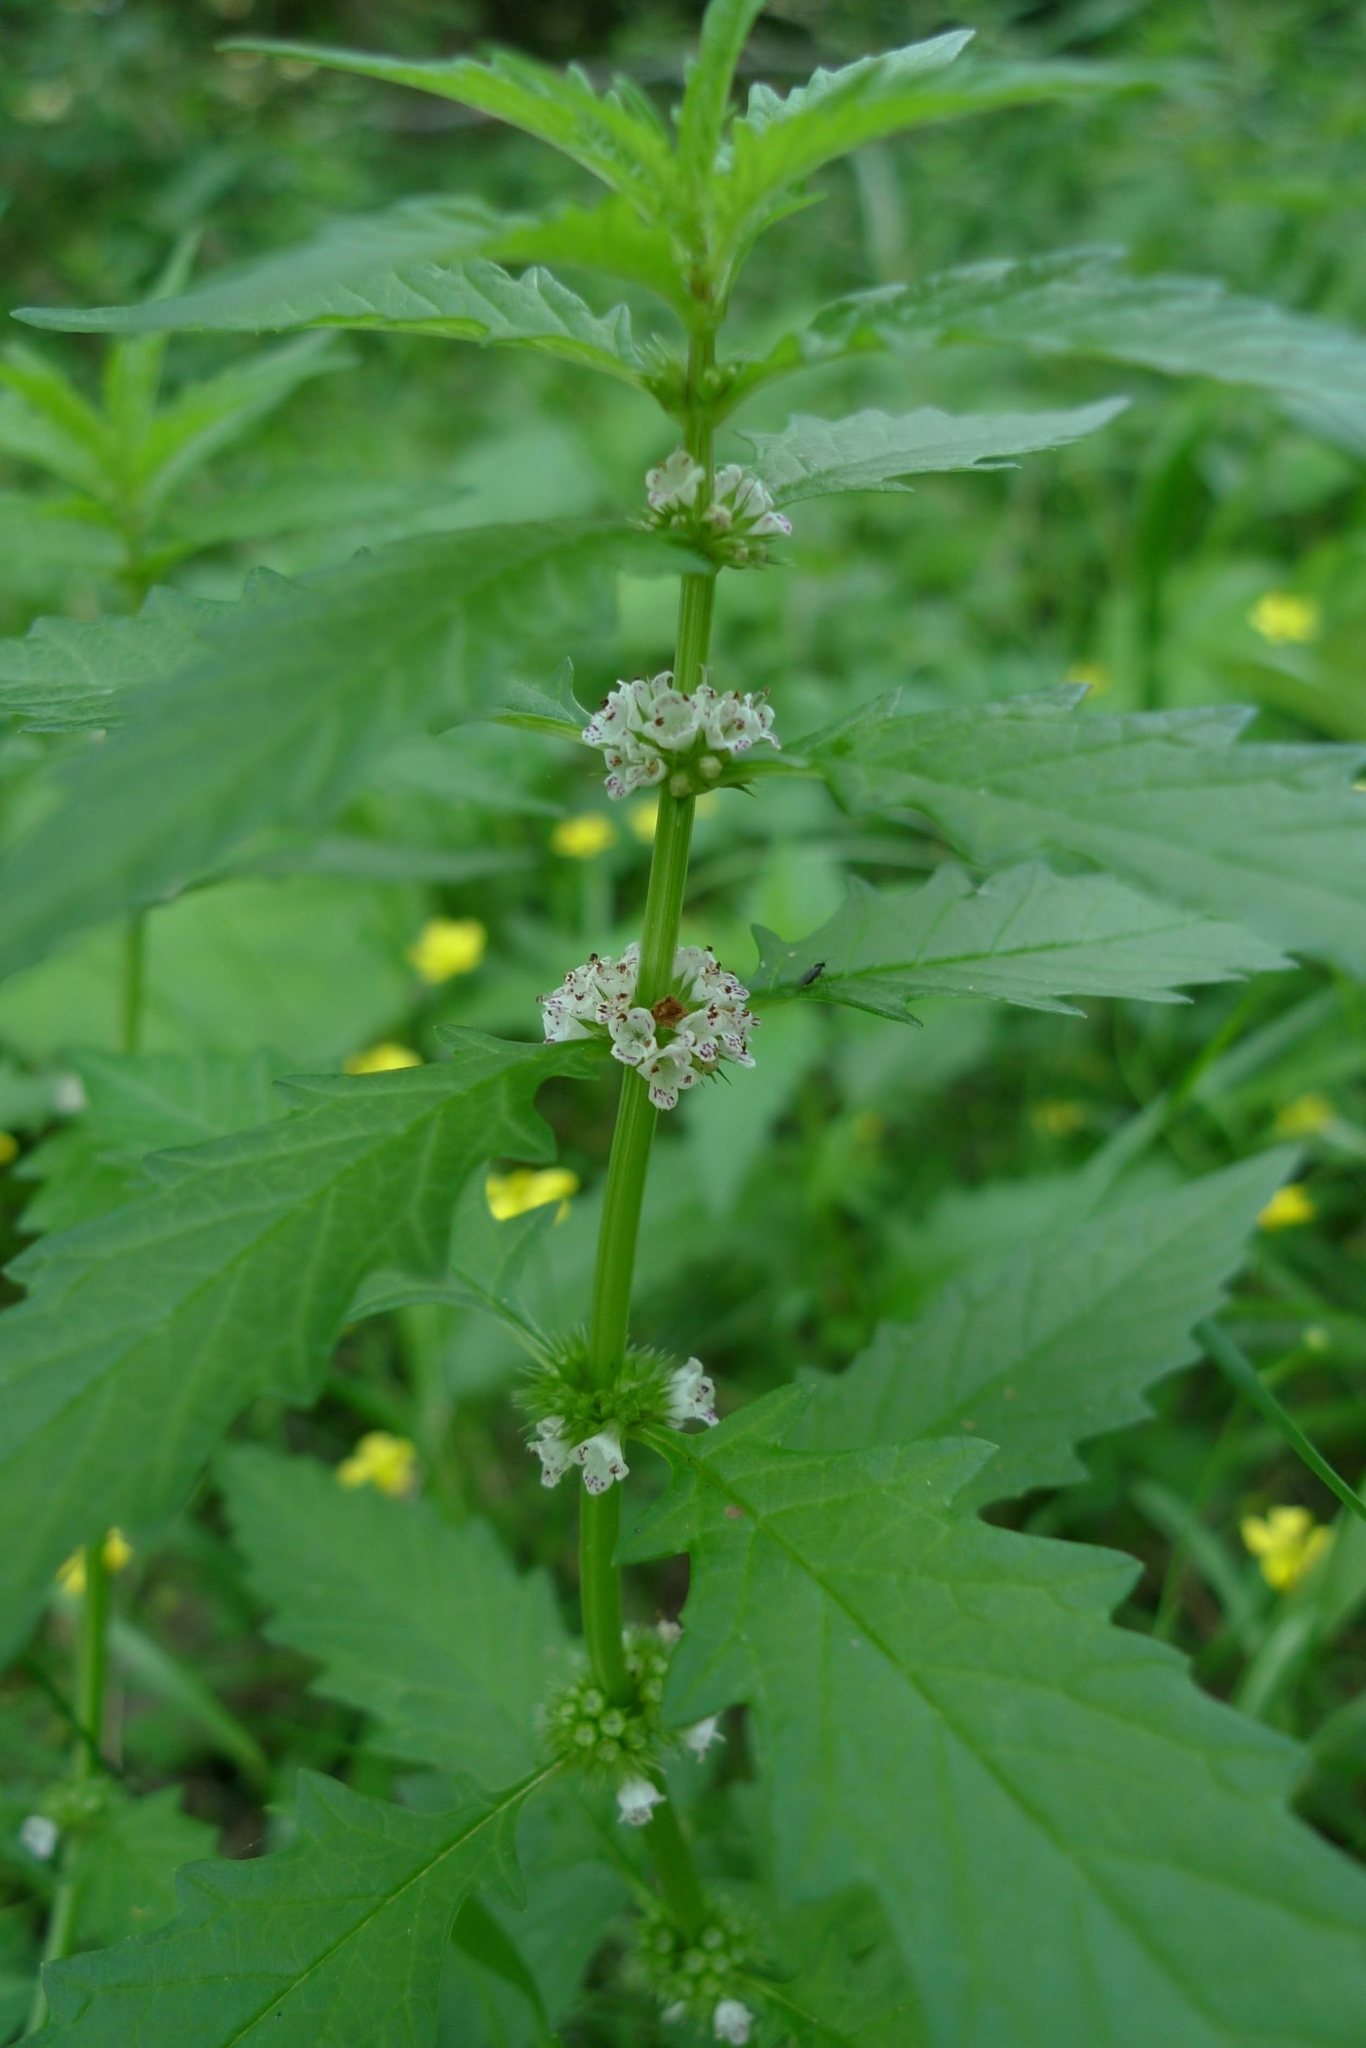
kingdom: Plantae
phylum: Tracheophyta
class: Magnoliopsida
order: Lamiales
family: Lamiaceae
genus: Lycopus
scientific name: Lycopus europaeus
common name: European bugleweed
